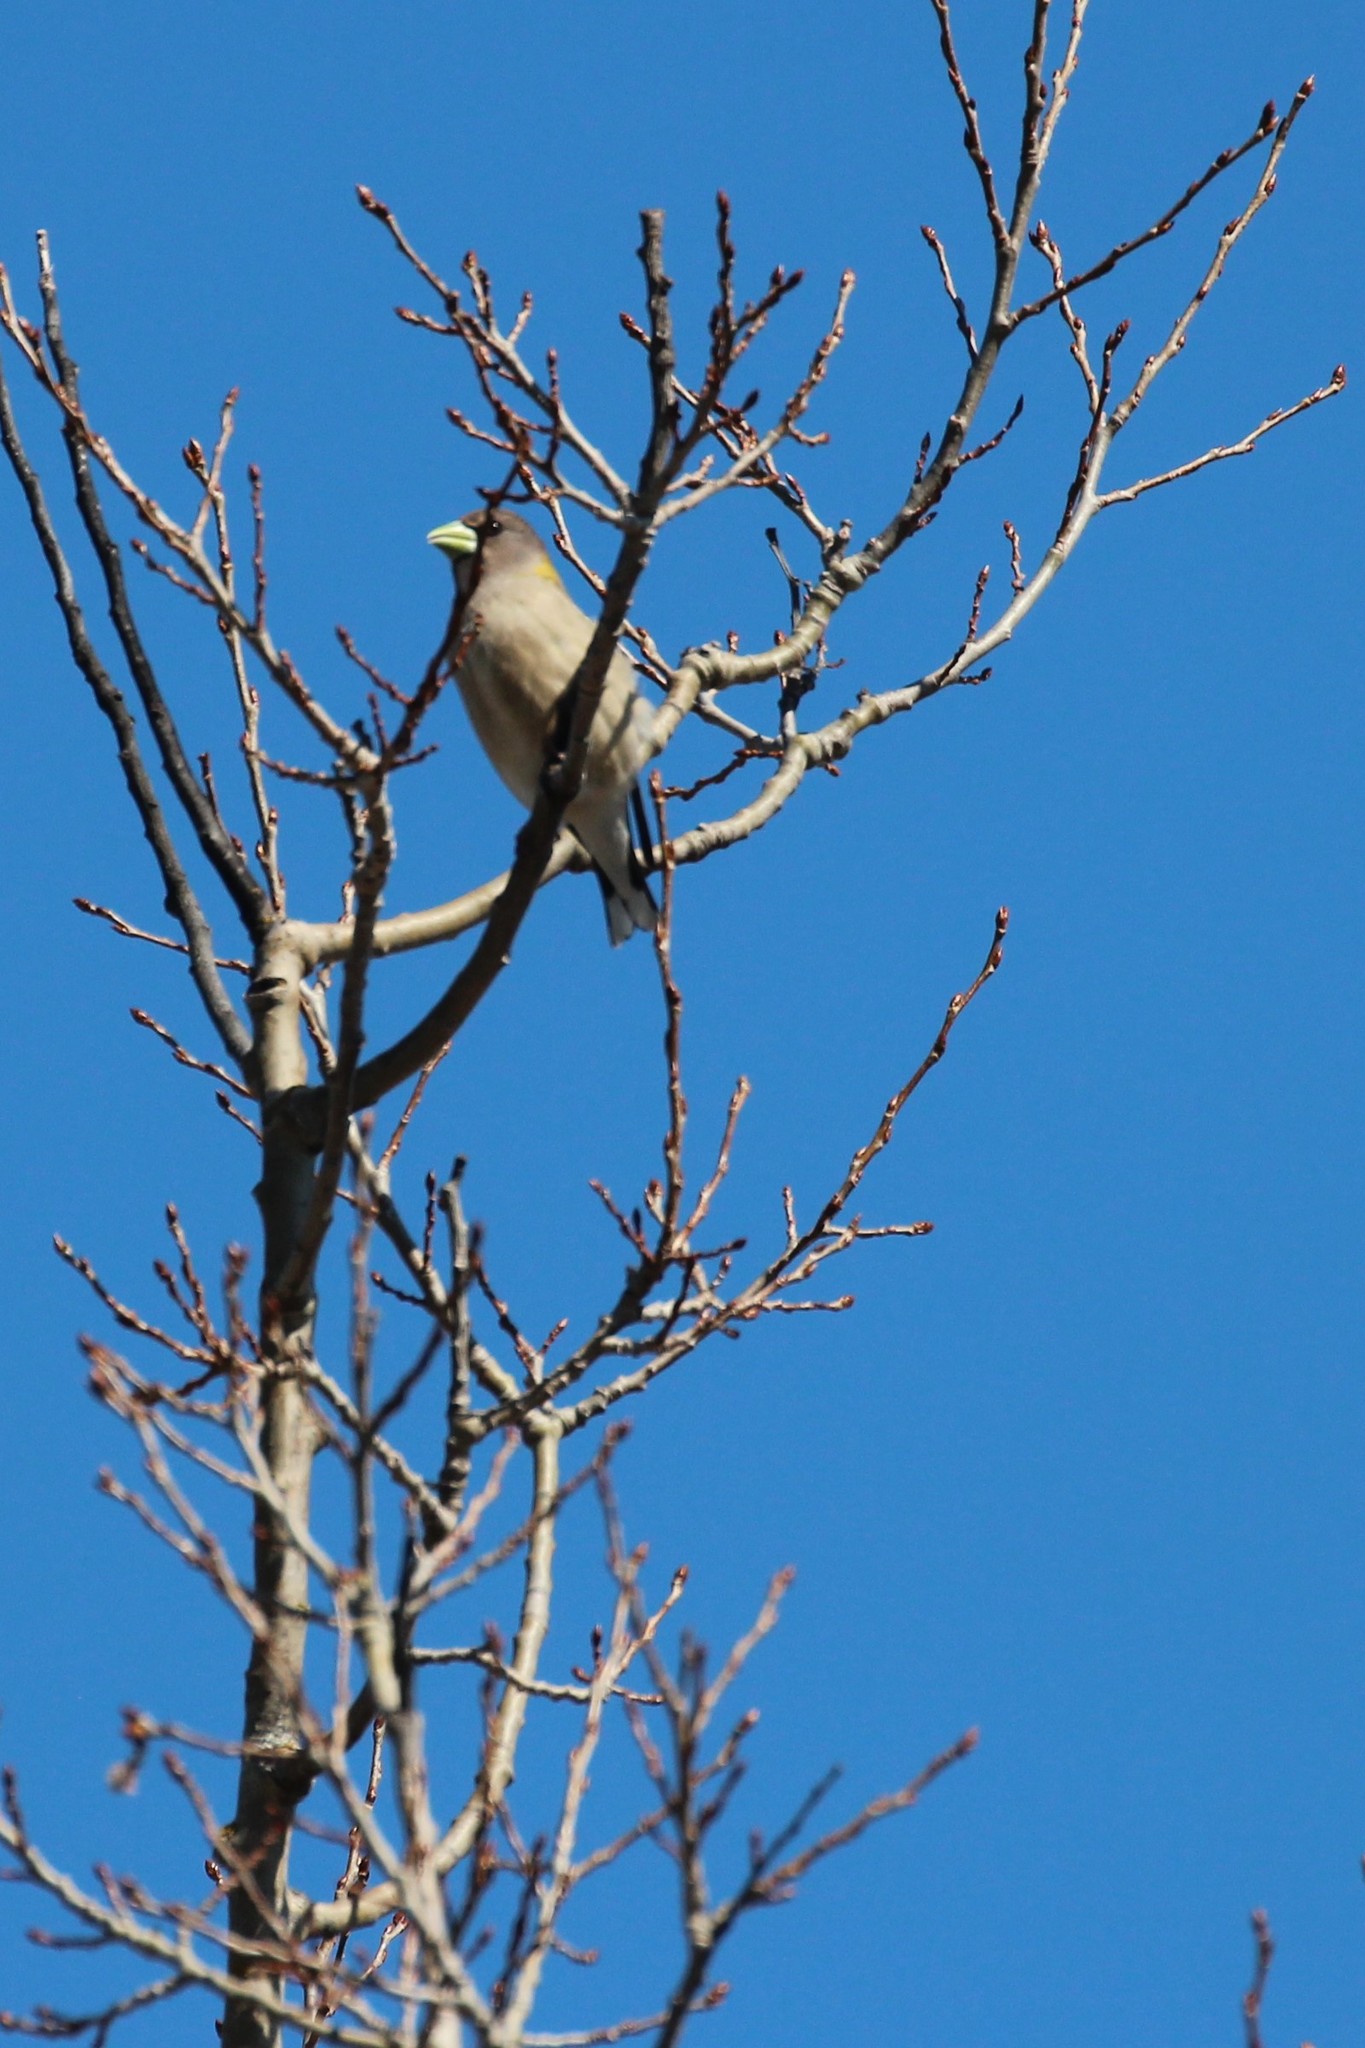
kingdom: Animalia
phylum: Chordata
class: Aves
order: Passeriformes
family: Fringillidae
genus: Hesperiphona
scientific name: Hesperiphona vespertina
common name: Evening grosbeak
